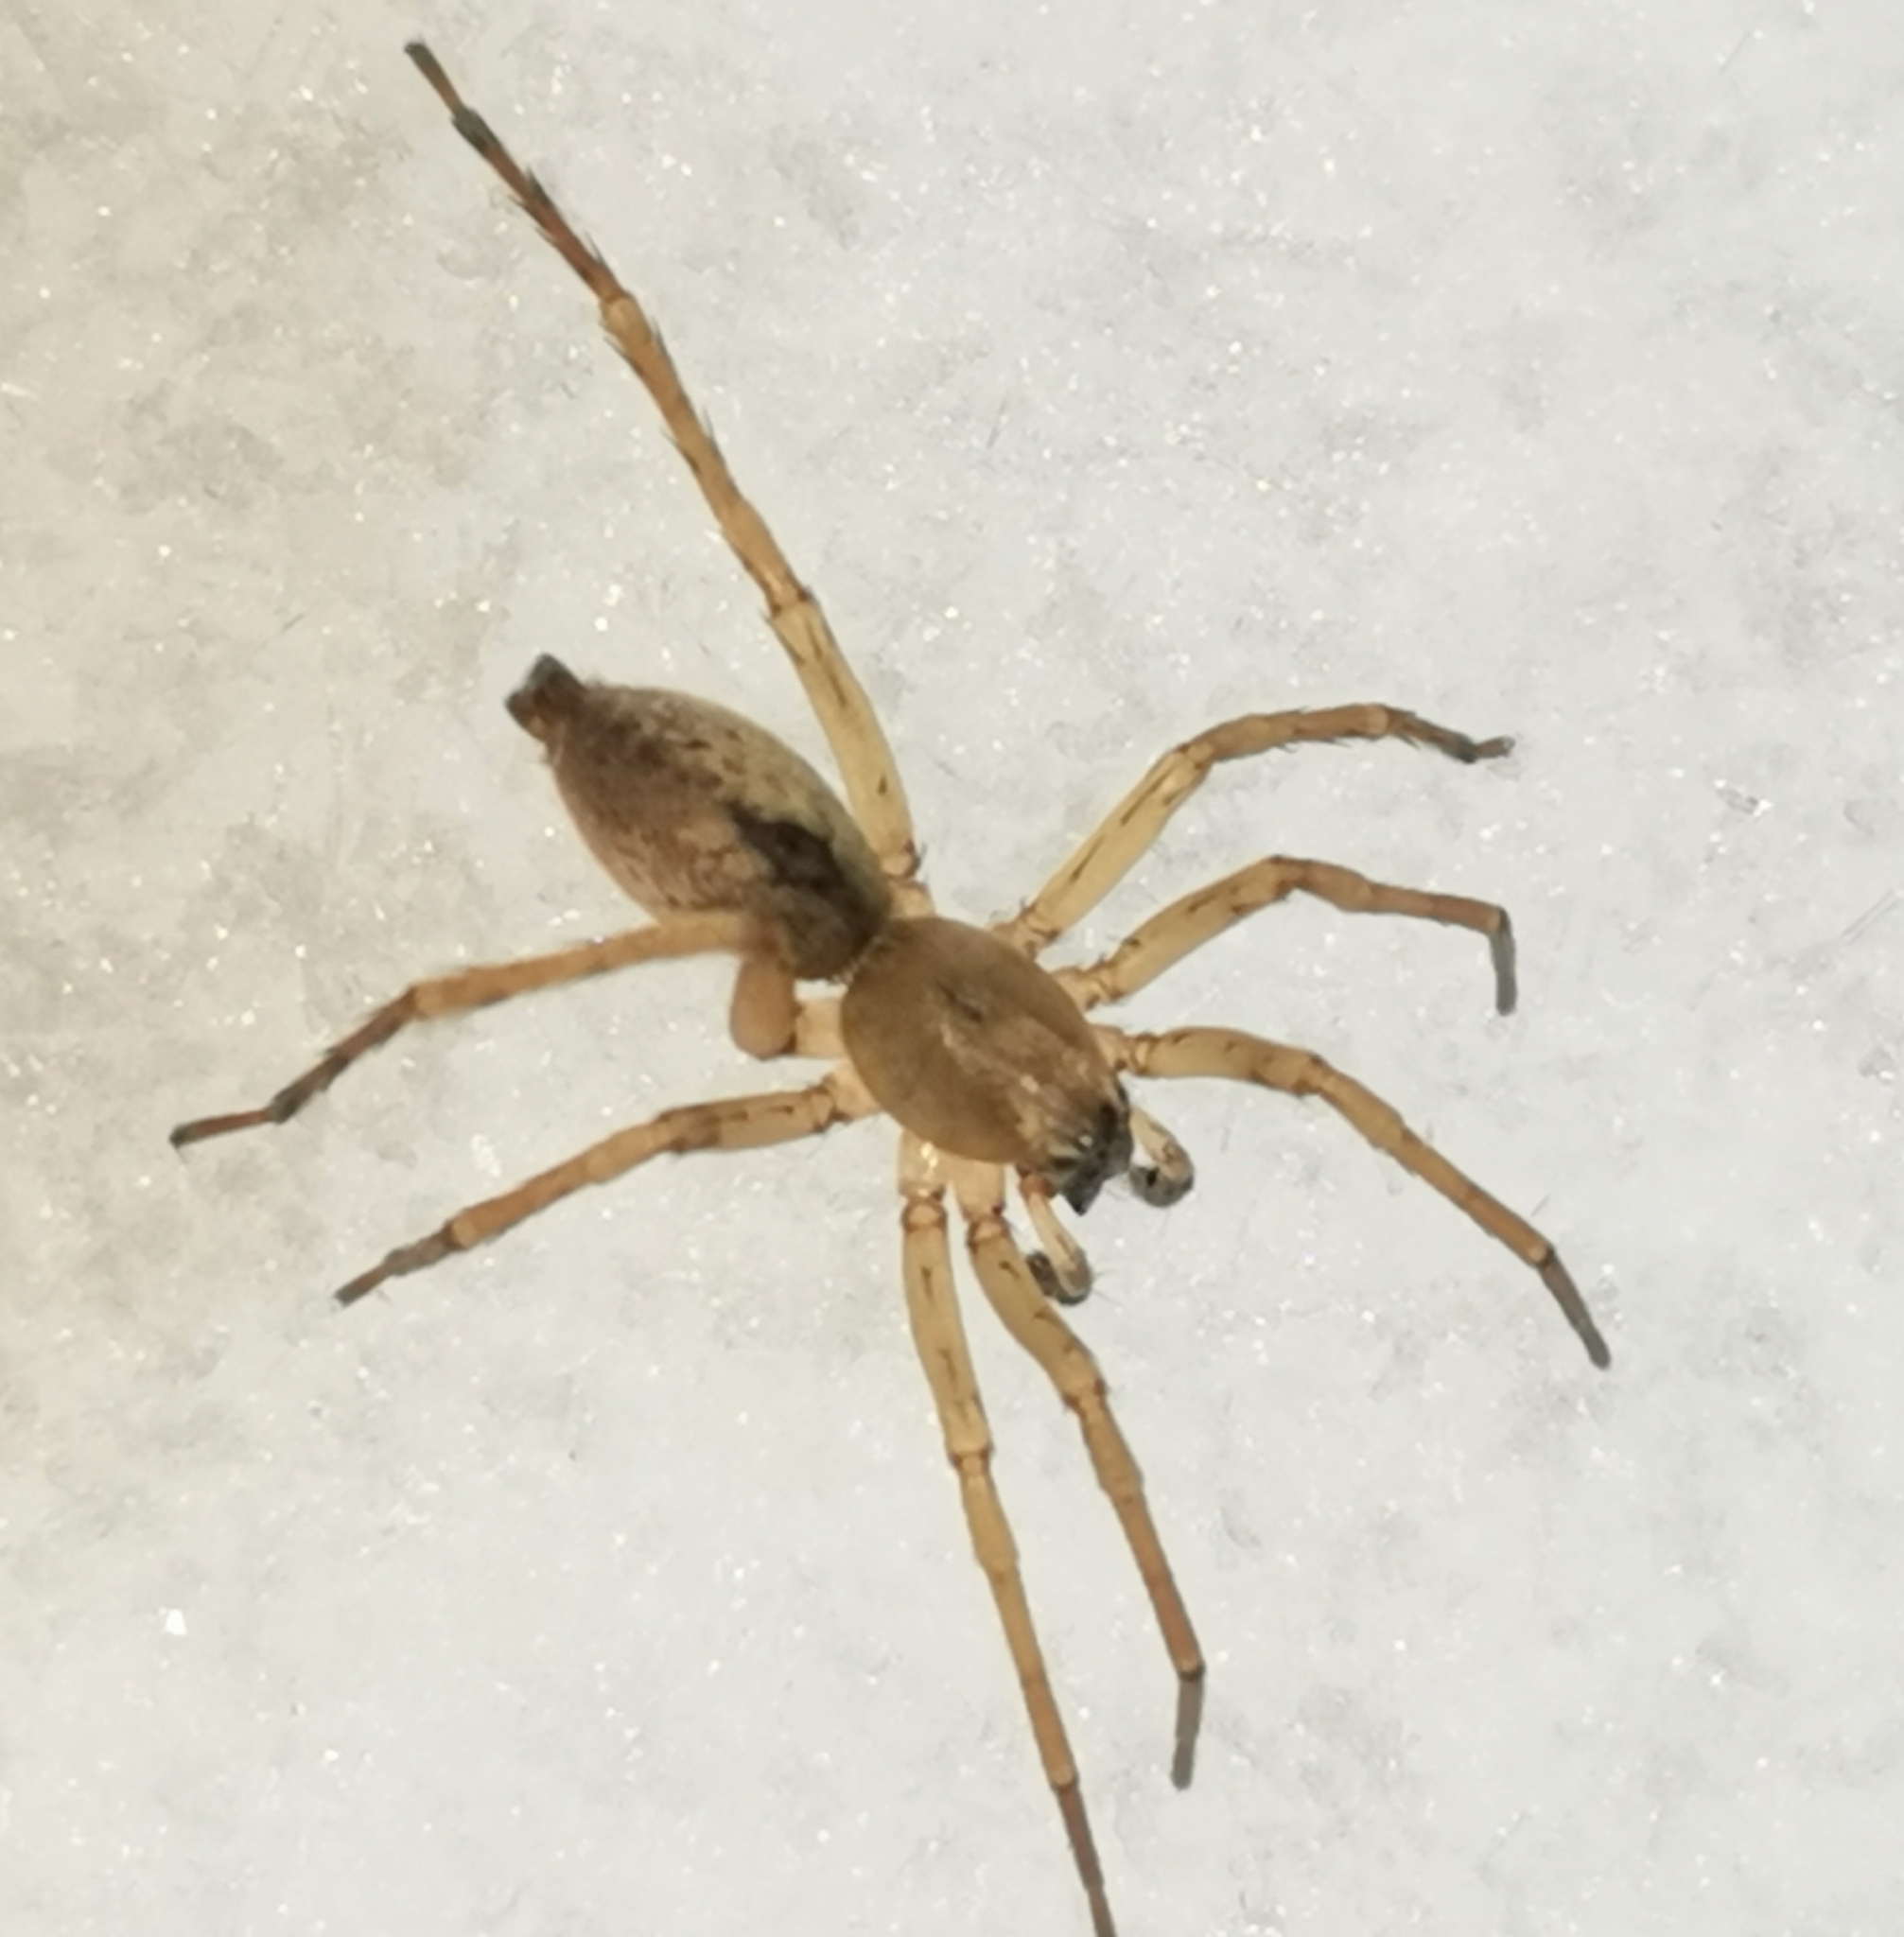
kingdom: Animalia
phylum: Arthropoda
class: Arachnida
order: Araneae
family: Clubionidae
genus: Clubiona
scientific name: Clubiona subsultans
